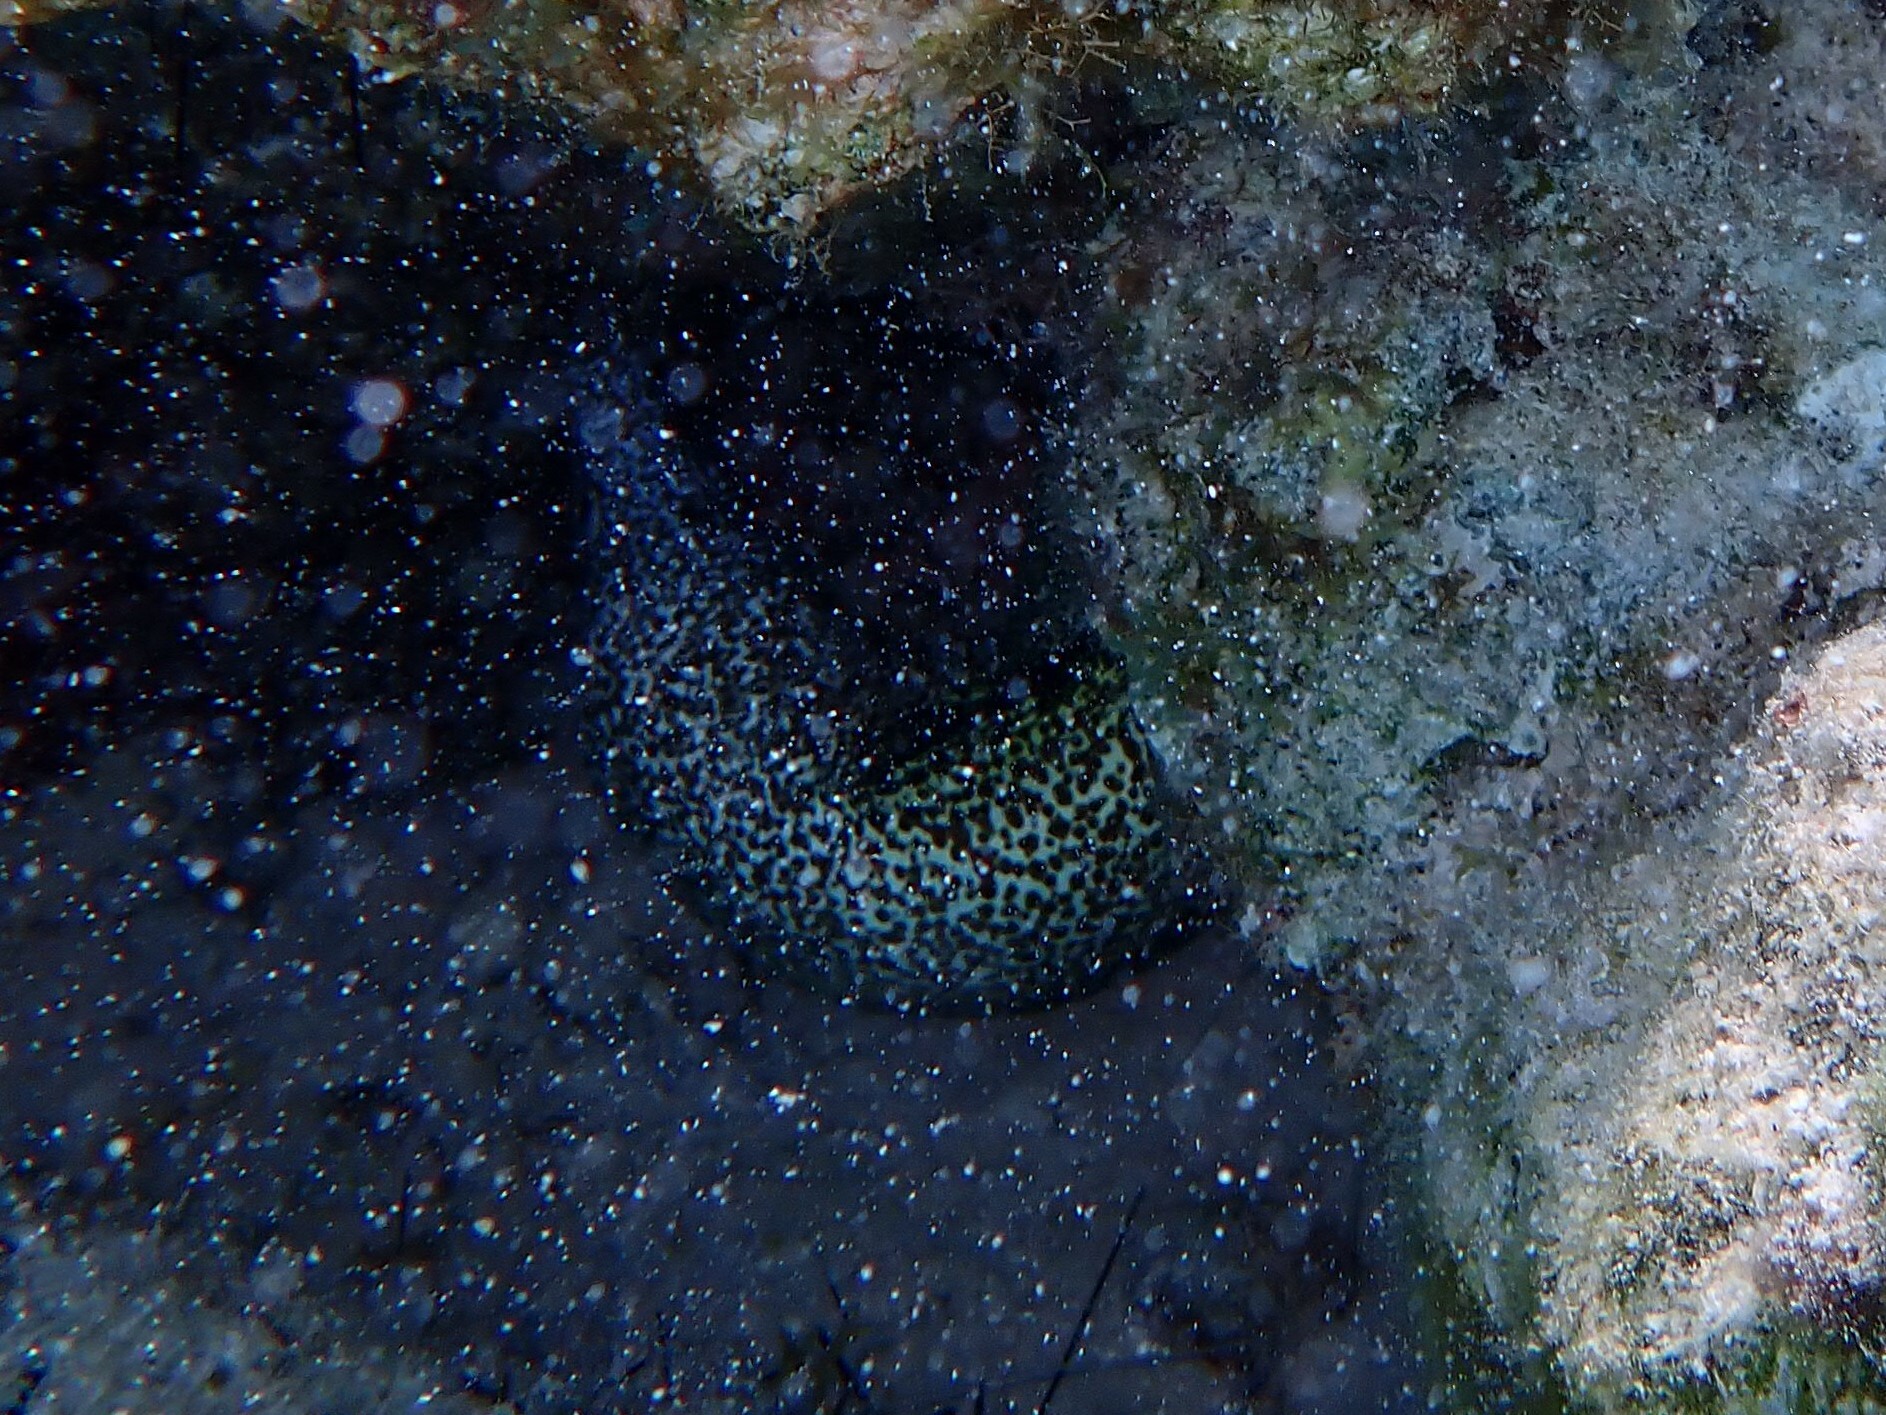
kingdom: Animalia
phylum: Chordata
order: Anguilliformes
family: Muraenidae
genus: Gymnothorax
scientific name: Gymnothorax moringa
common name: Spotted moray
